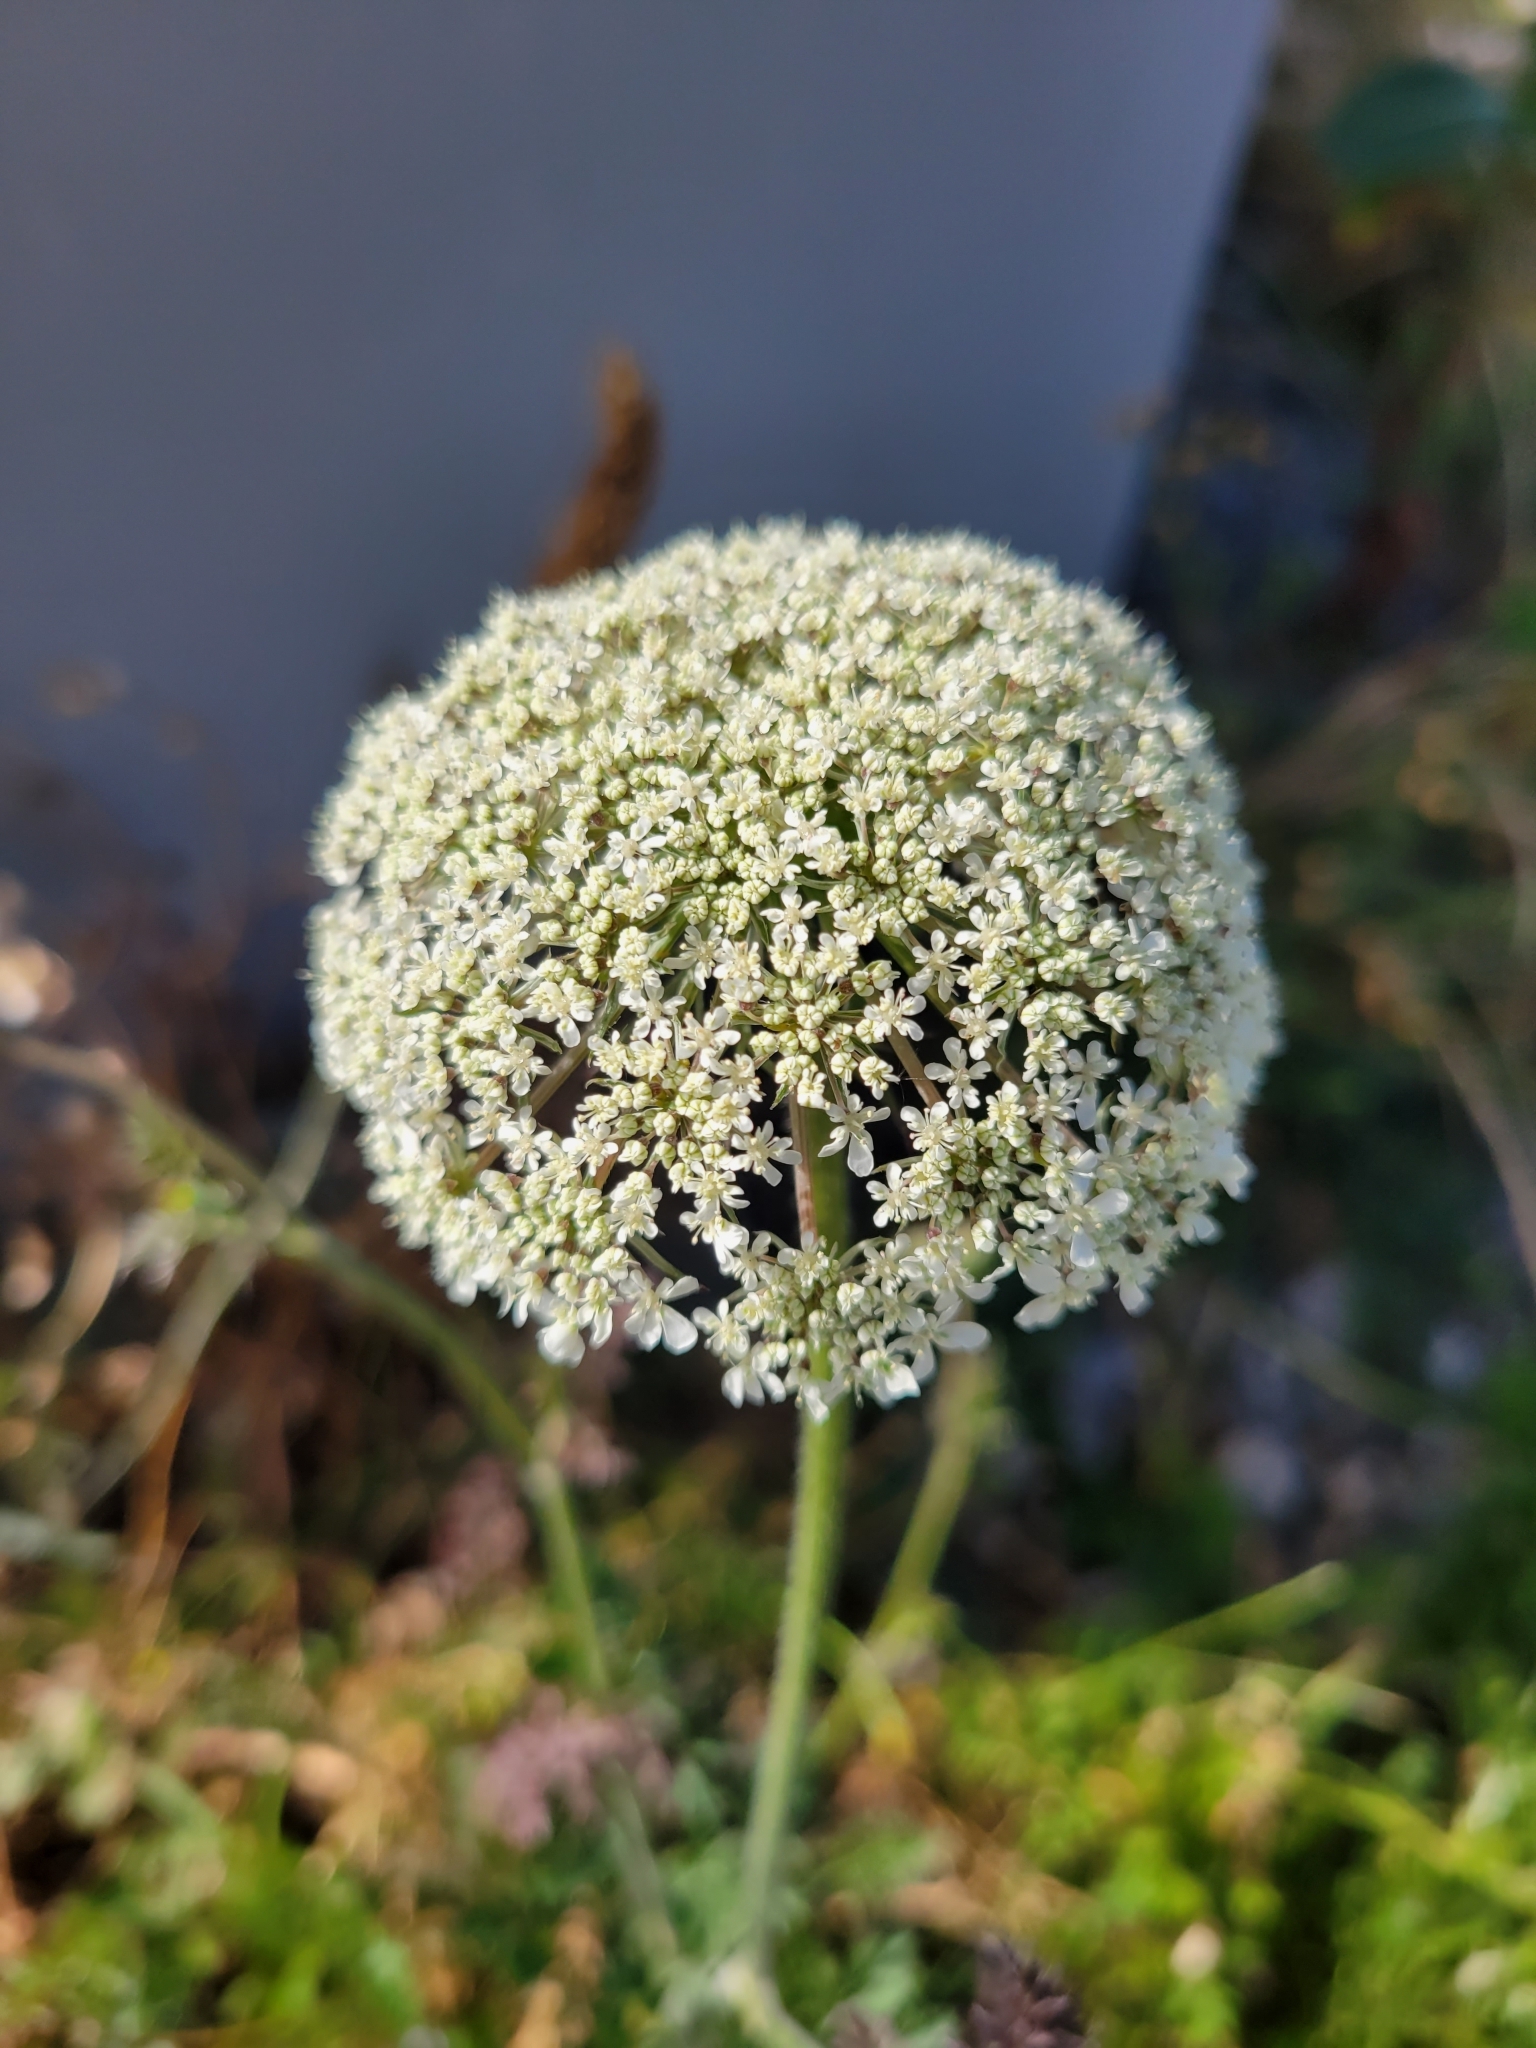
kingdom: Plantae
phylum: Tracheophyta
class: Magnoliopsida
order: Apiales
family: Apiaceae
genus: Daucus
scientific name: Daucus carota
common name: Wild carrot
